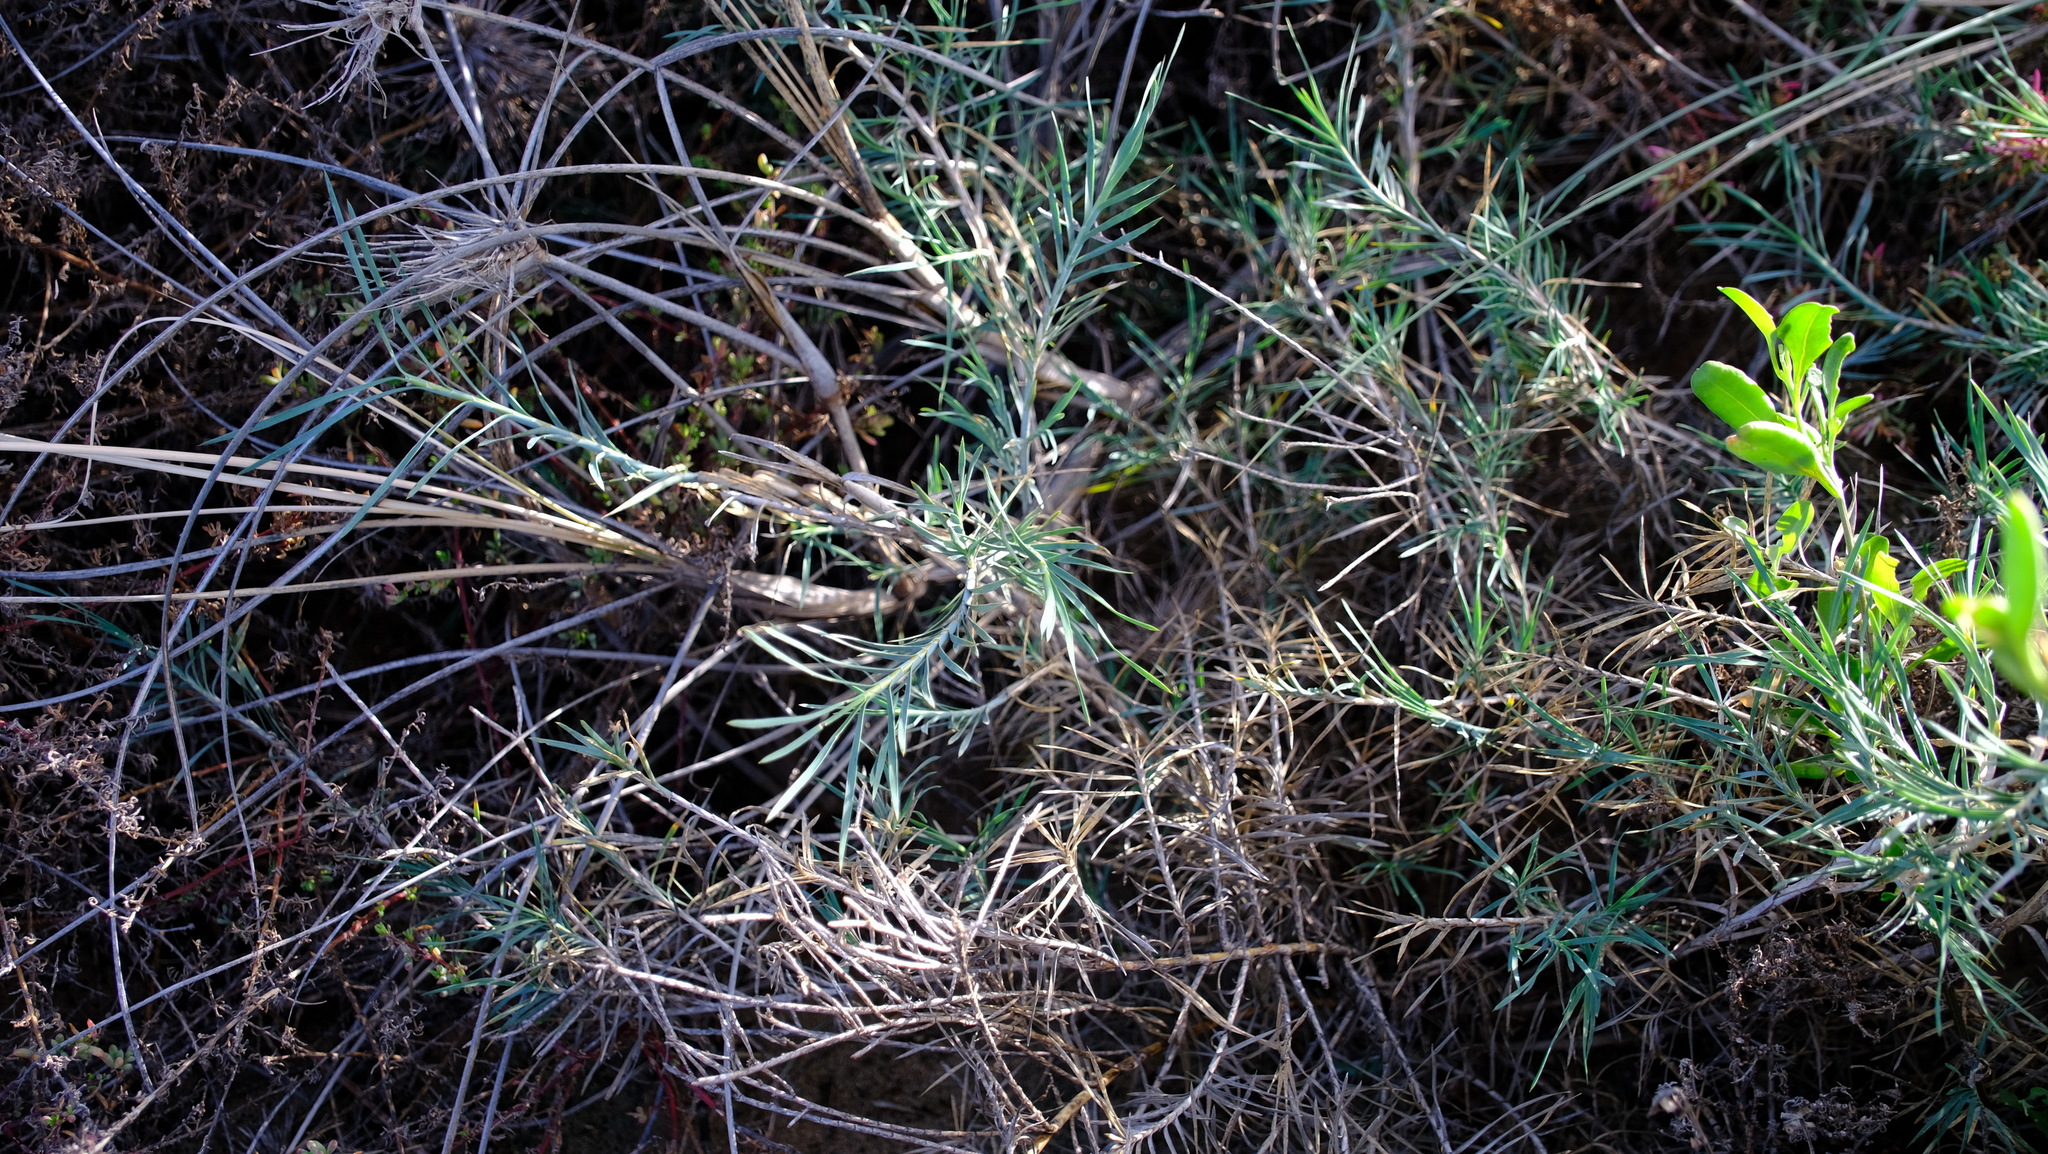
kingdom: Plantae
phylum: Tracheophyta
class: Liliopsida
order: Asparagales
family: Asparagaceae
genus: Acanthocarpus
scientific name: Acanthocarpus preissii
